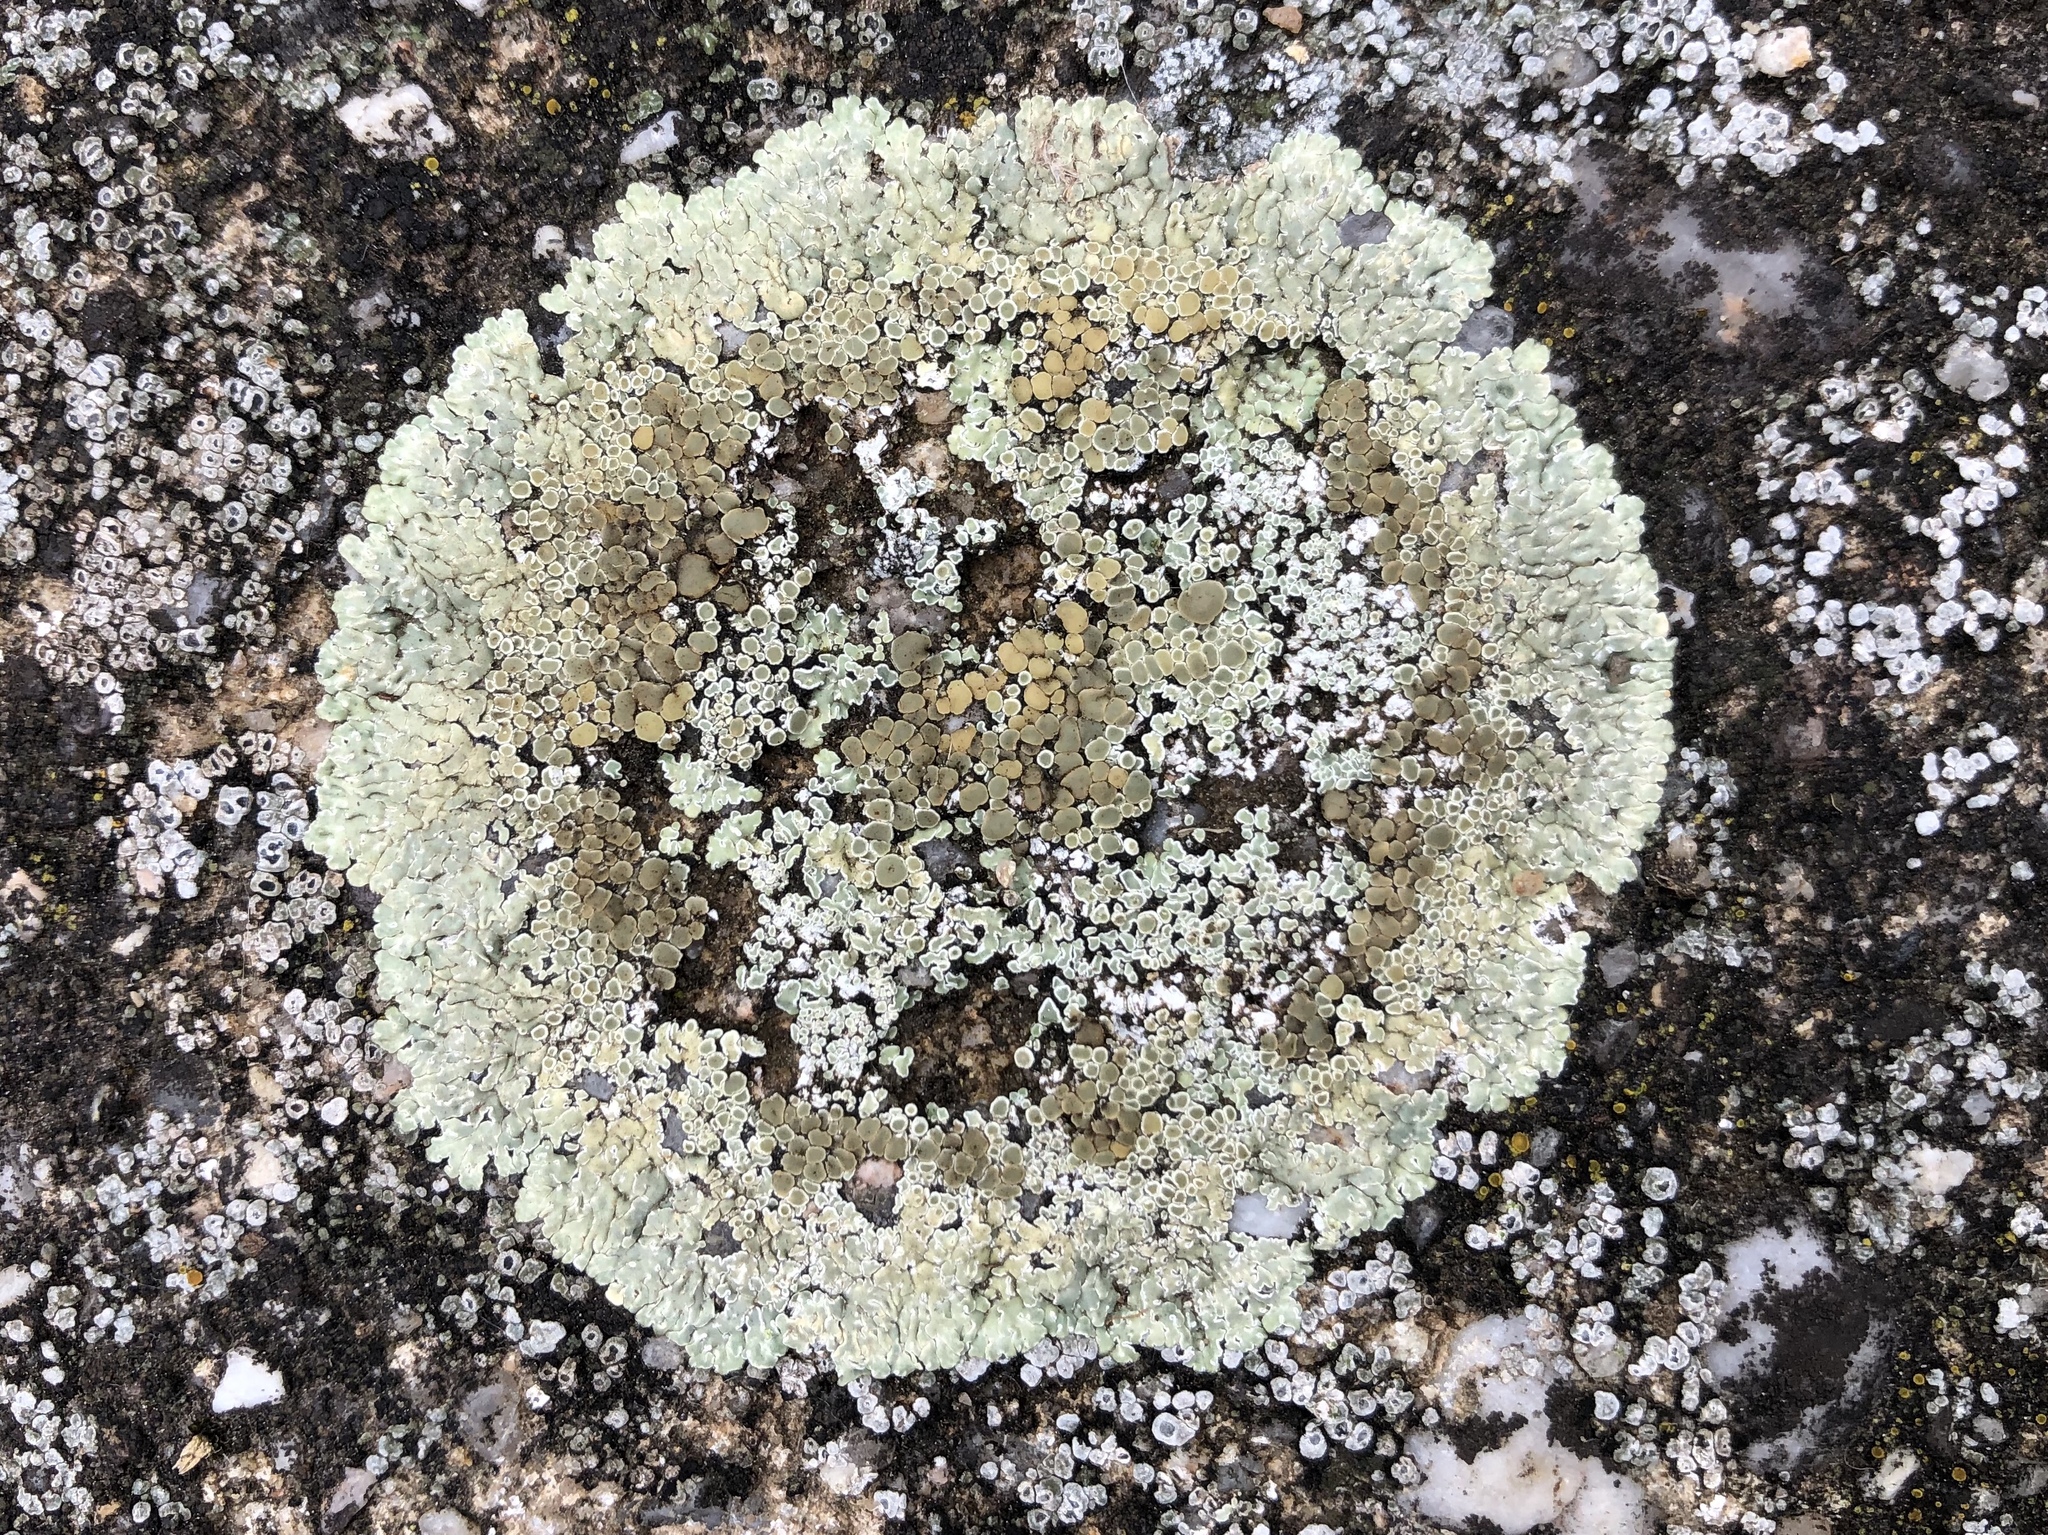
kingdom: Fungi
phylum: Ascomycota
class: Lecanoromycetes
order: Lecanorales
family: Lecanoraceae
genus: Protoparmeliopsis
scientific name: Protoparmeliopsis muralis
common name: Stonewall rim lichen
